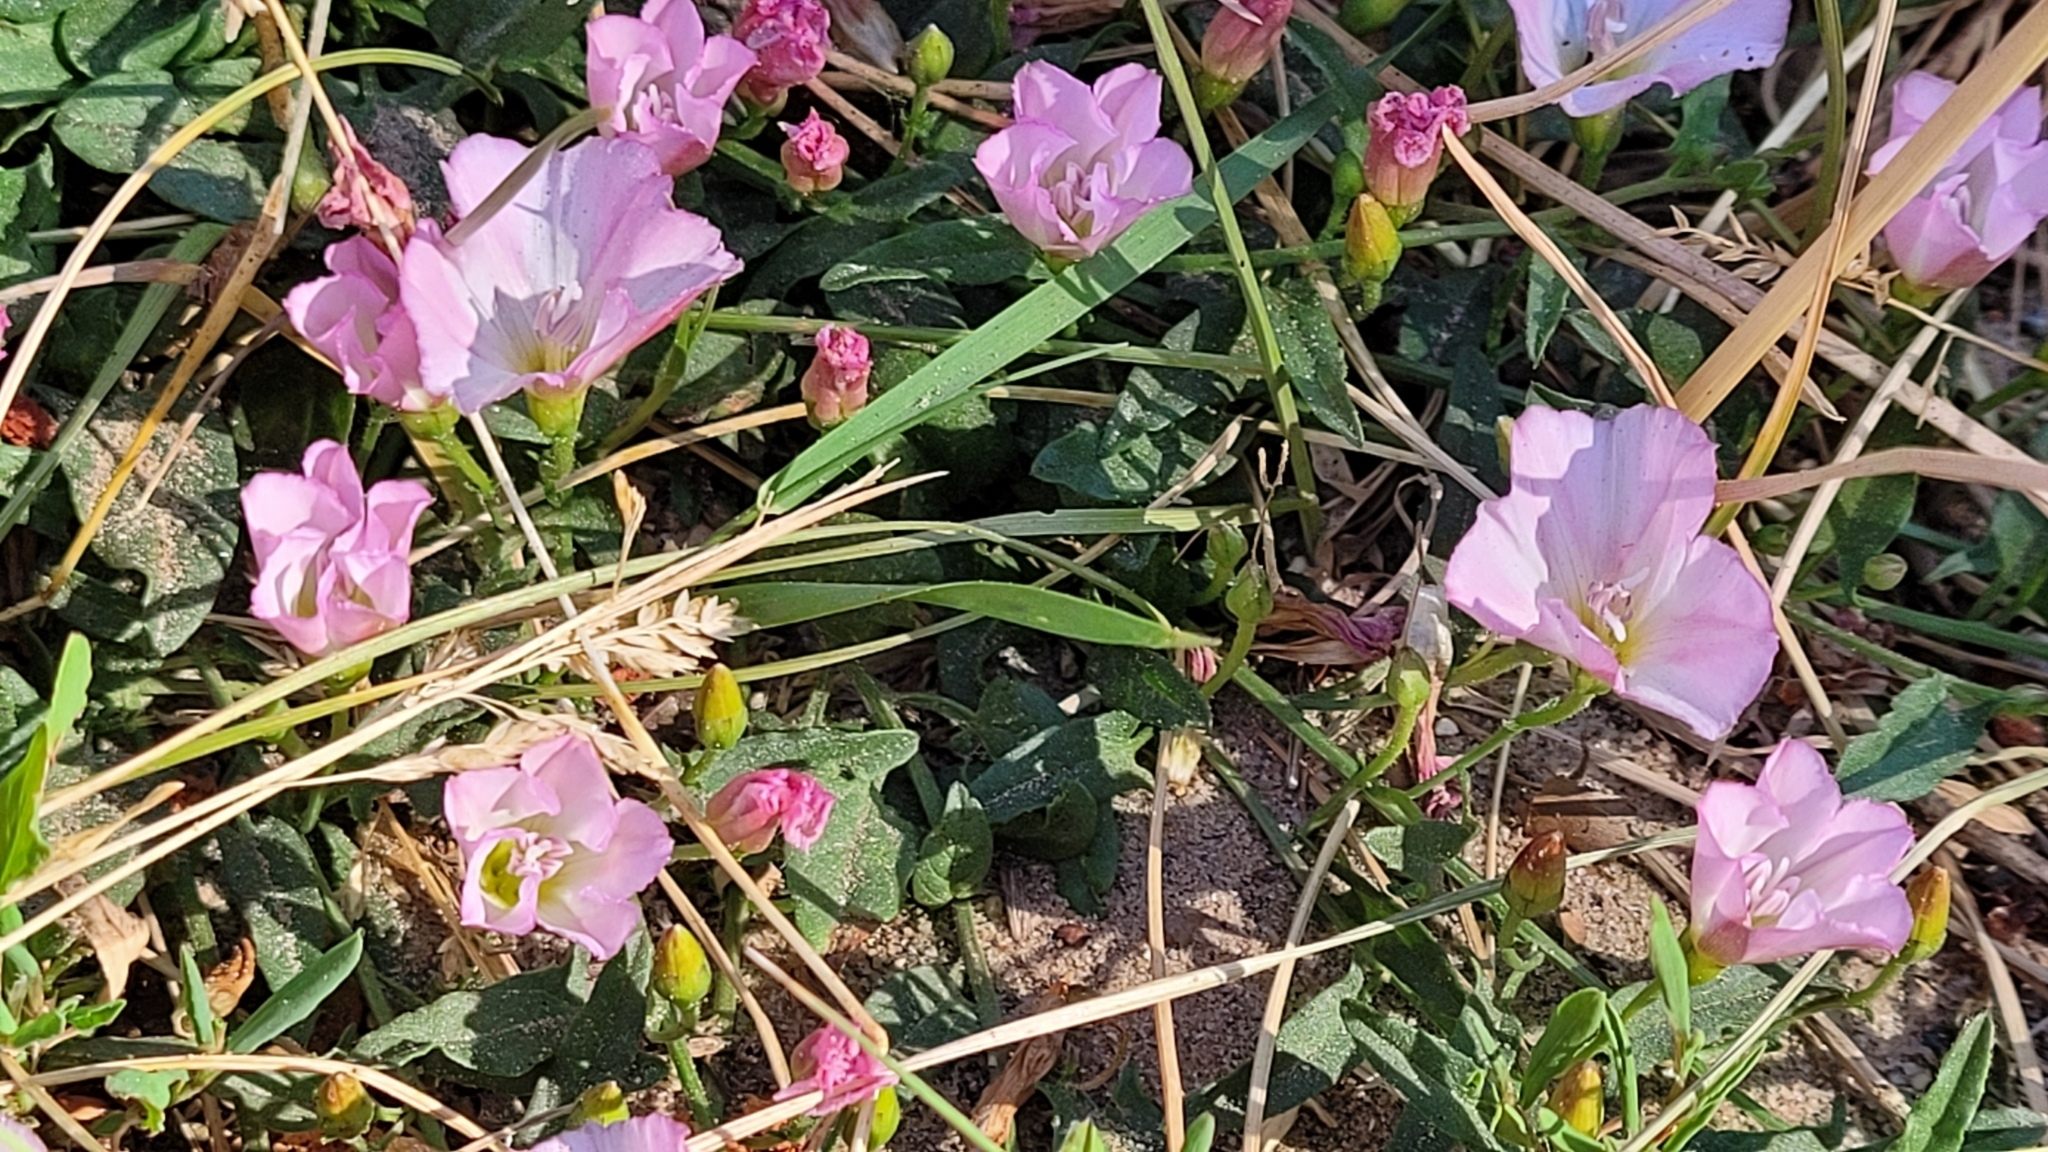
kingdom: Plantae
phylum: Tracheophyta
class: Magnoliopsida
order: Solanales
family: Convolvulaceae
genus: Convolvulus
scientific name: Convolvulus arvensis
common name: Field bindweed
